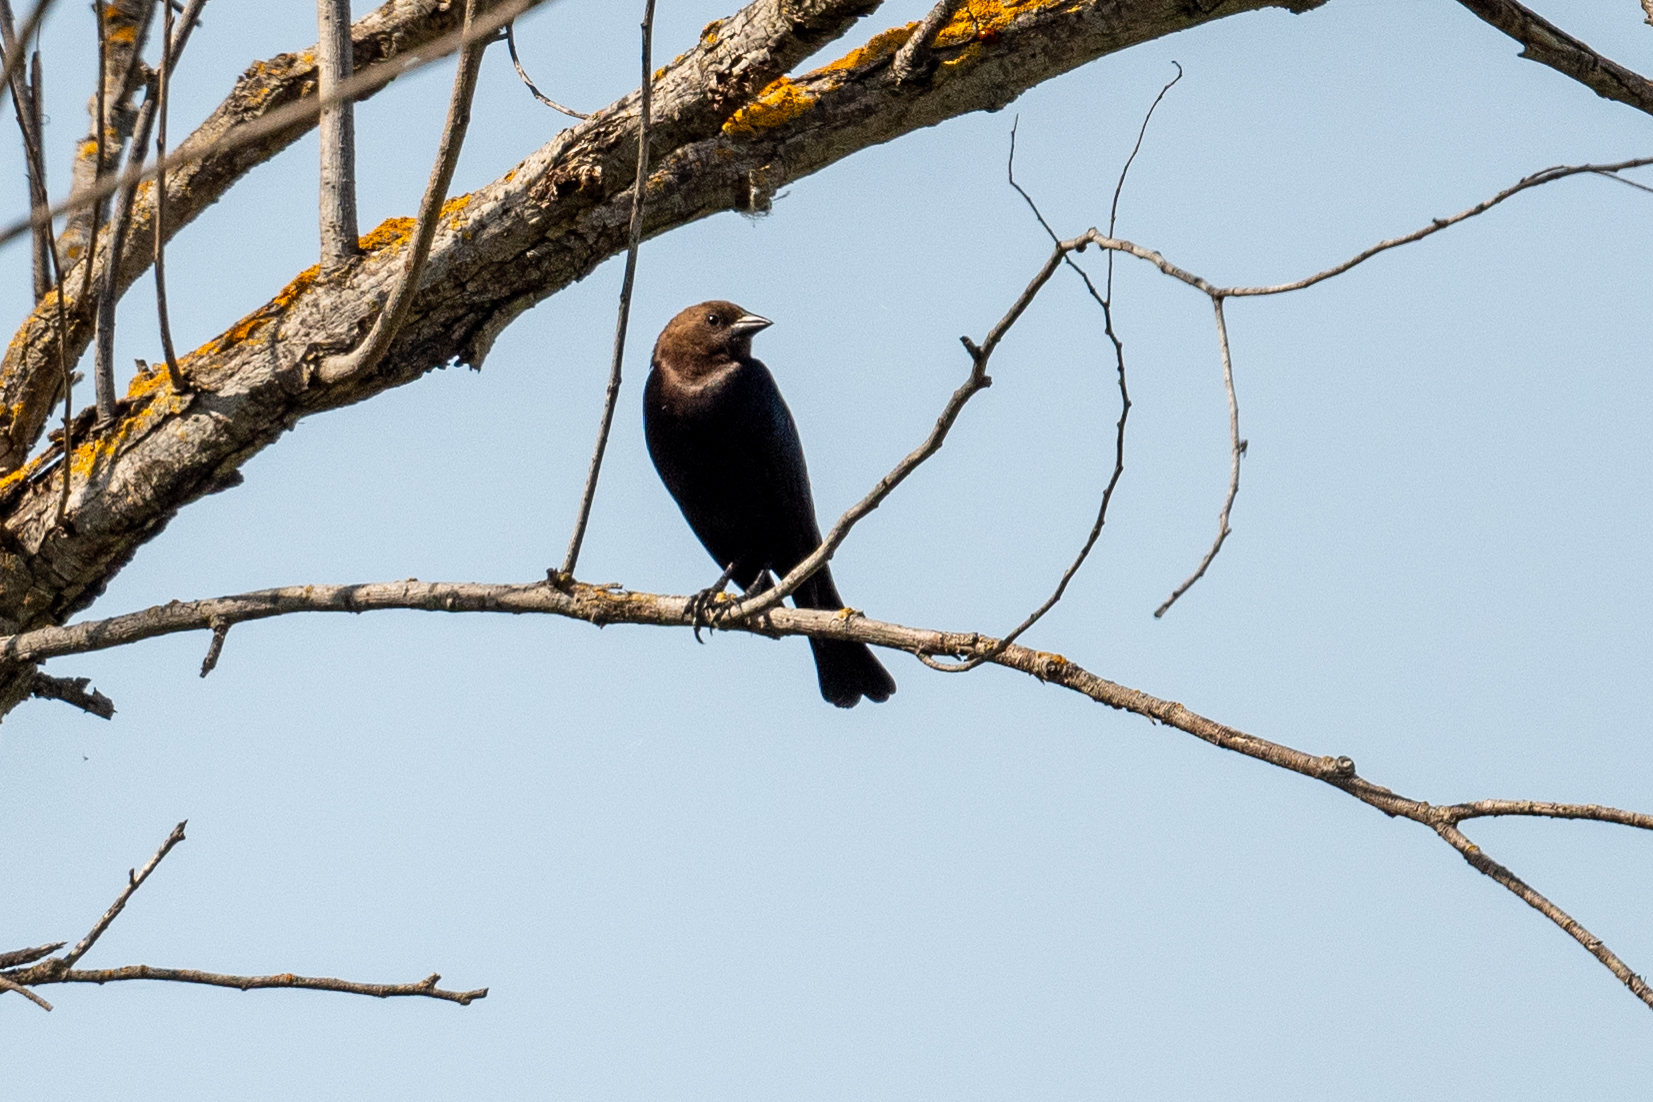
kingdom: Animalia
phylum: Chordata
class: Aves
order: Passeriformes
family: Icteridae
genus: Molothrus
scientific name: Molothrus ater
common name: Brown-headed cowbird
